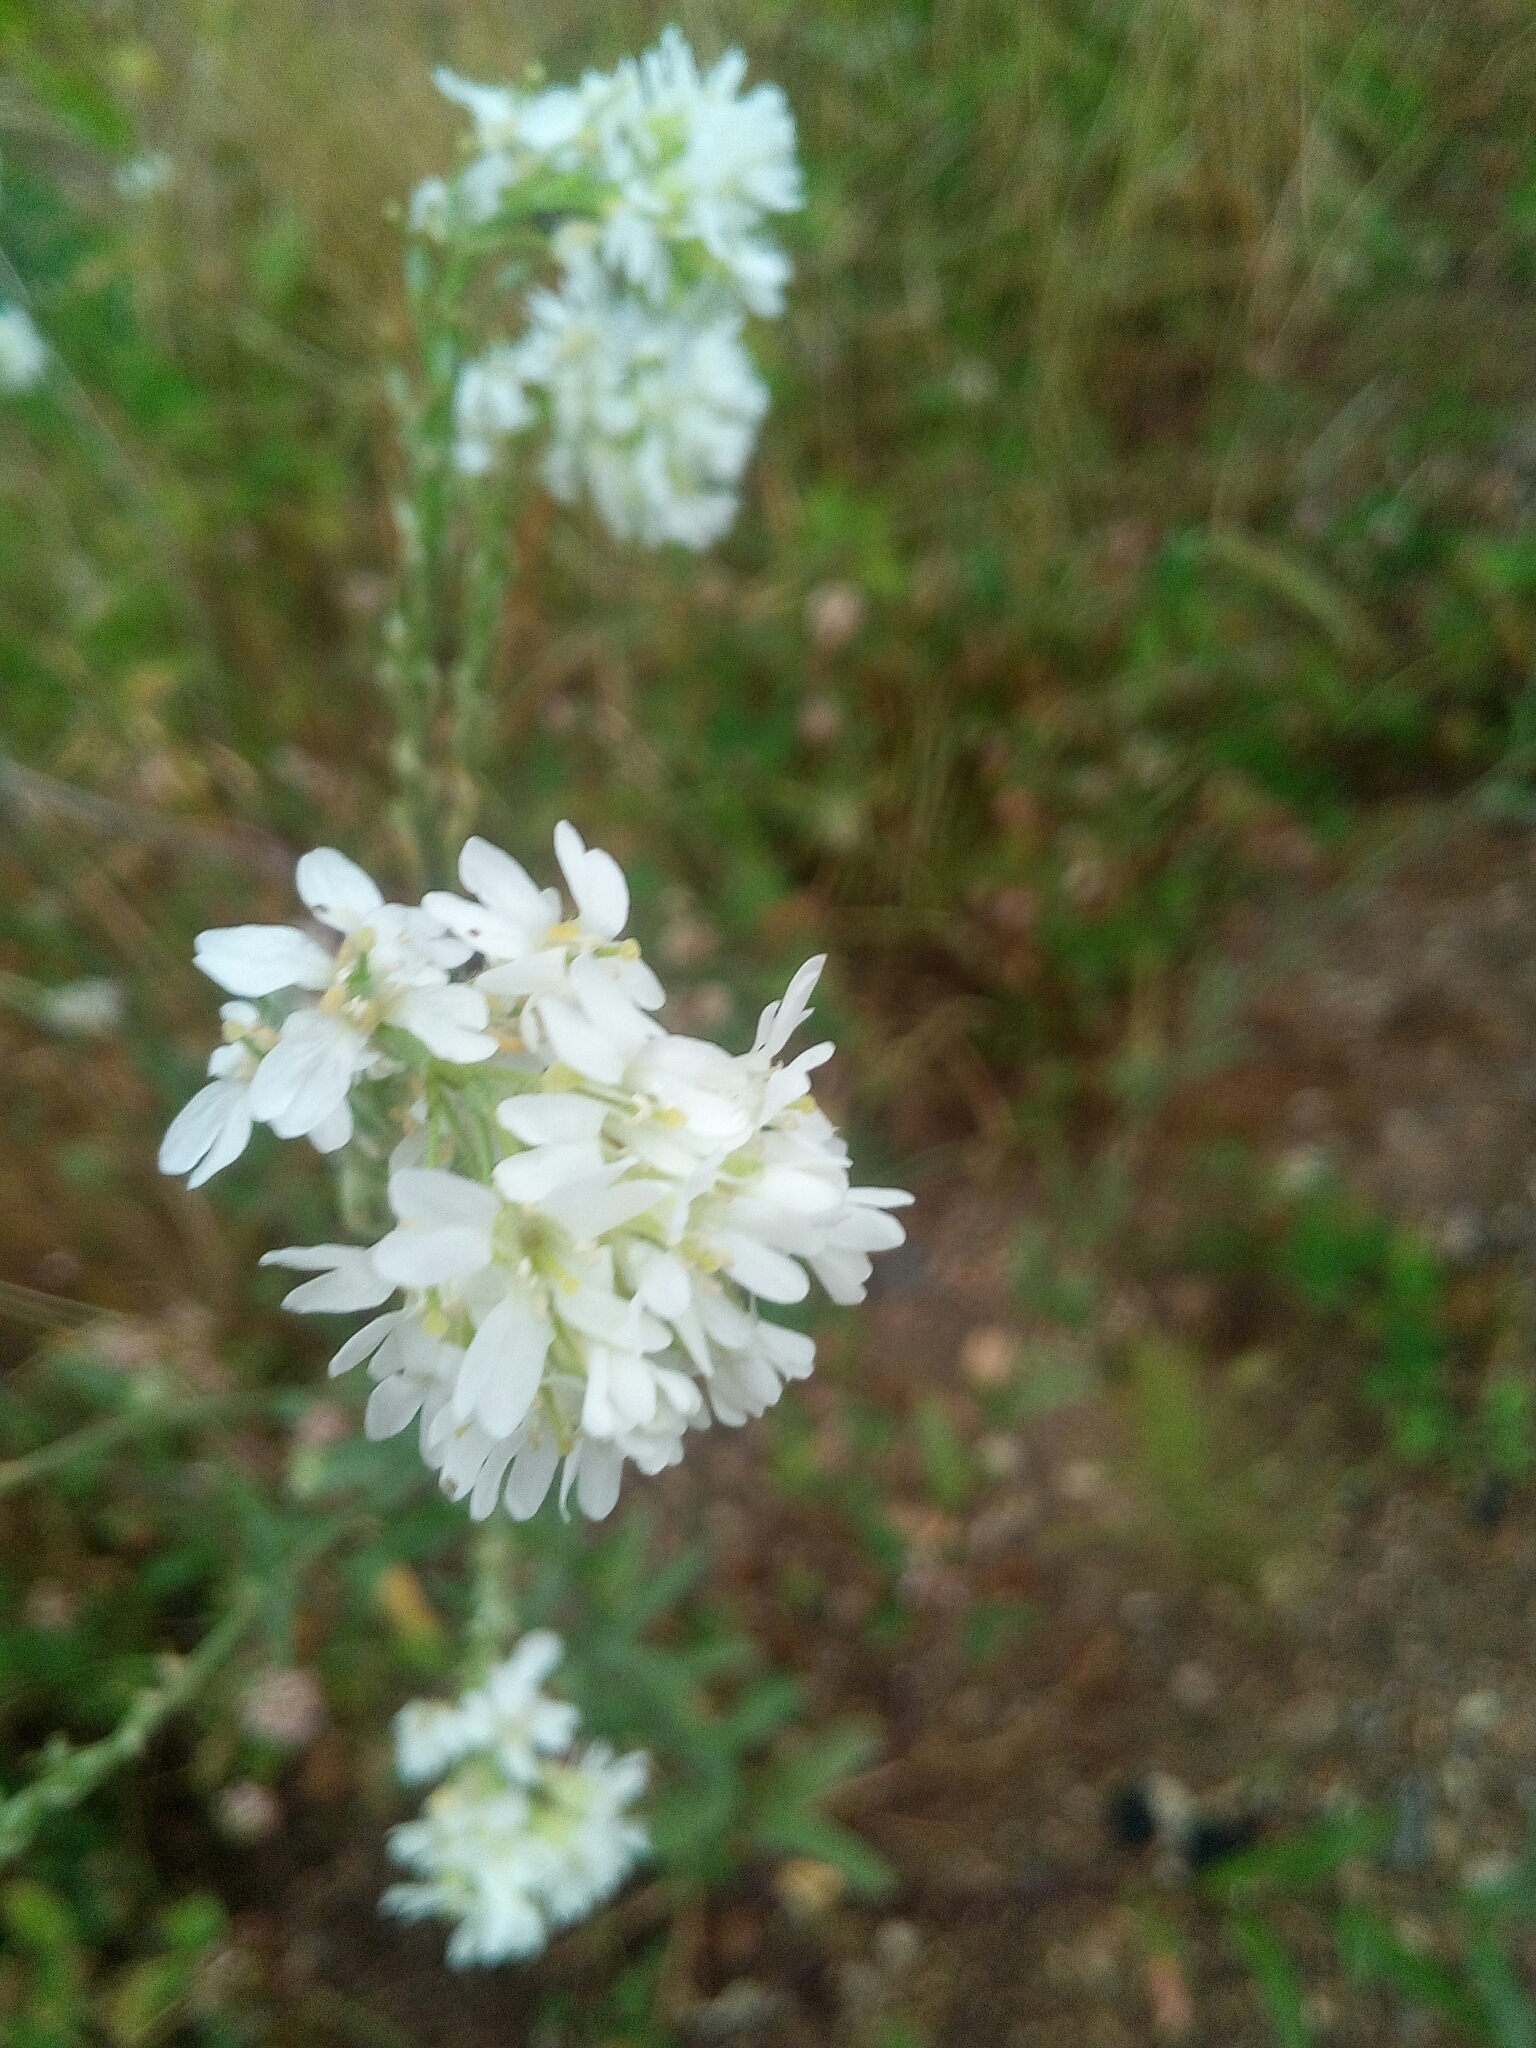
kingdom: Plantae
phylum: Tracheophyta
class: Magnoliopsida
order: Brassicales
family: Brassicaceae
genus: Berteroa
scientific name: Berteroa incana
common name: Hoary alison
